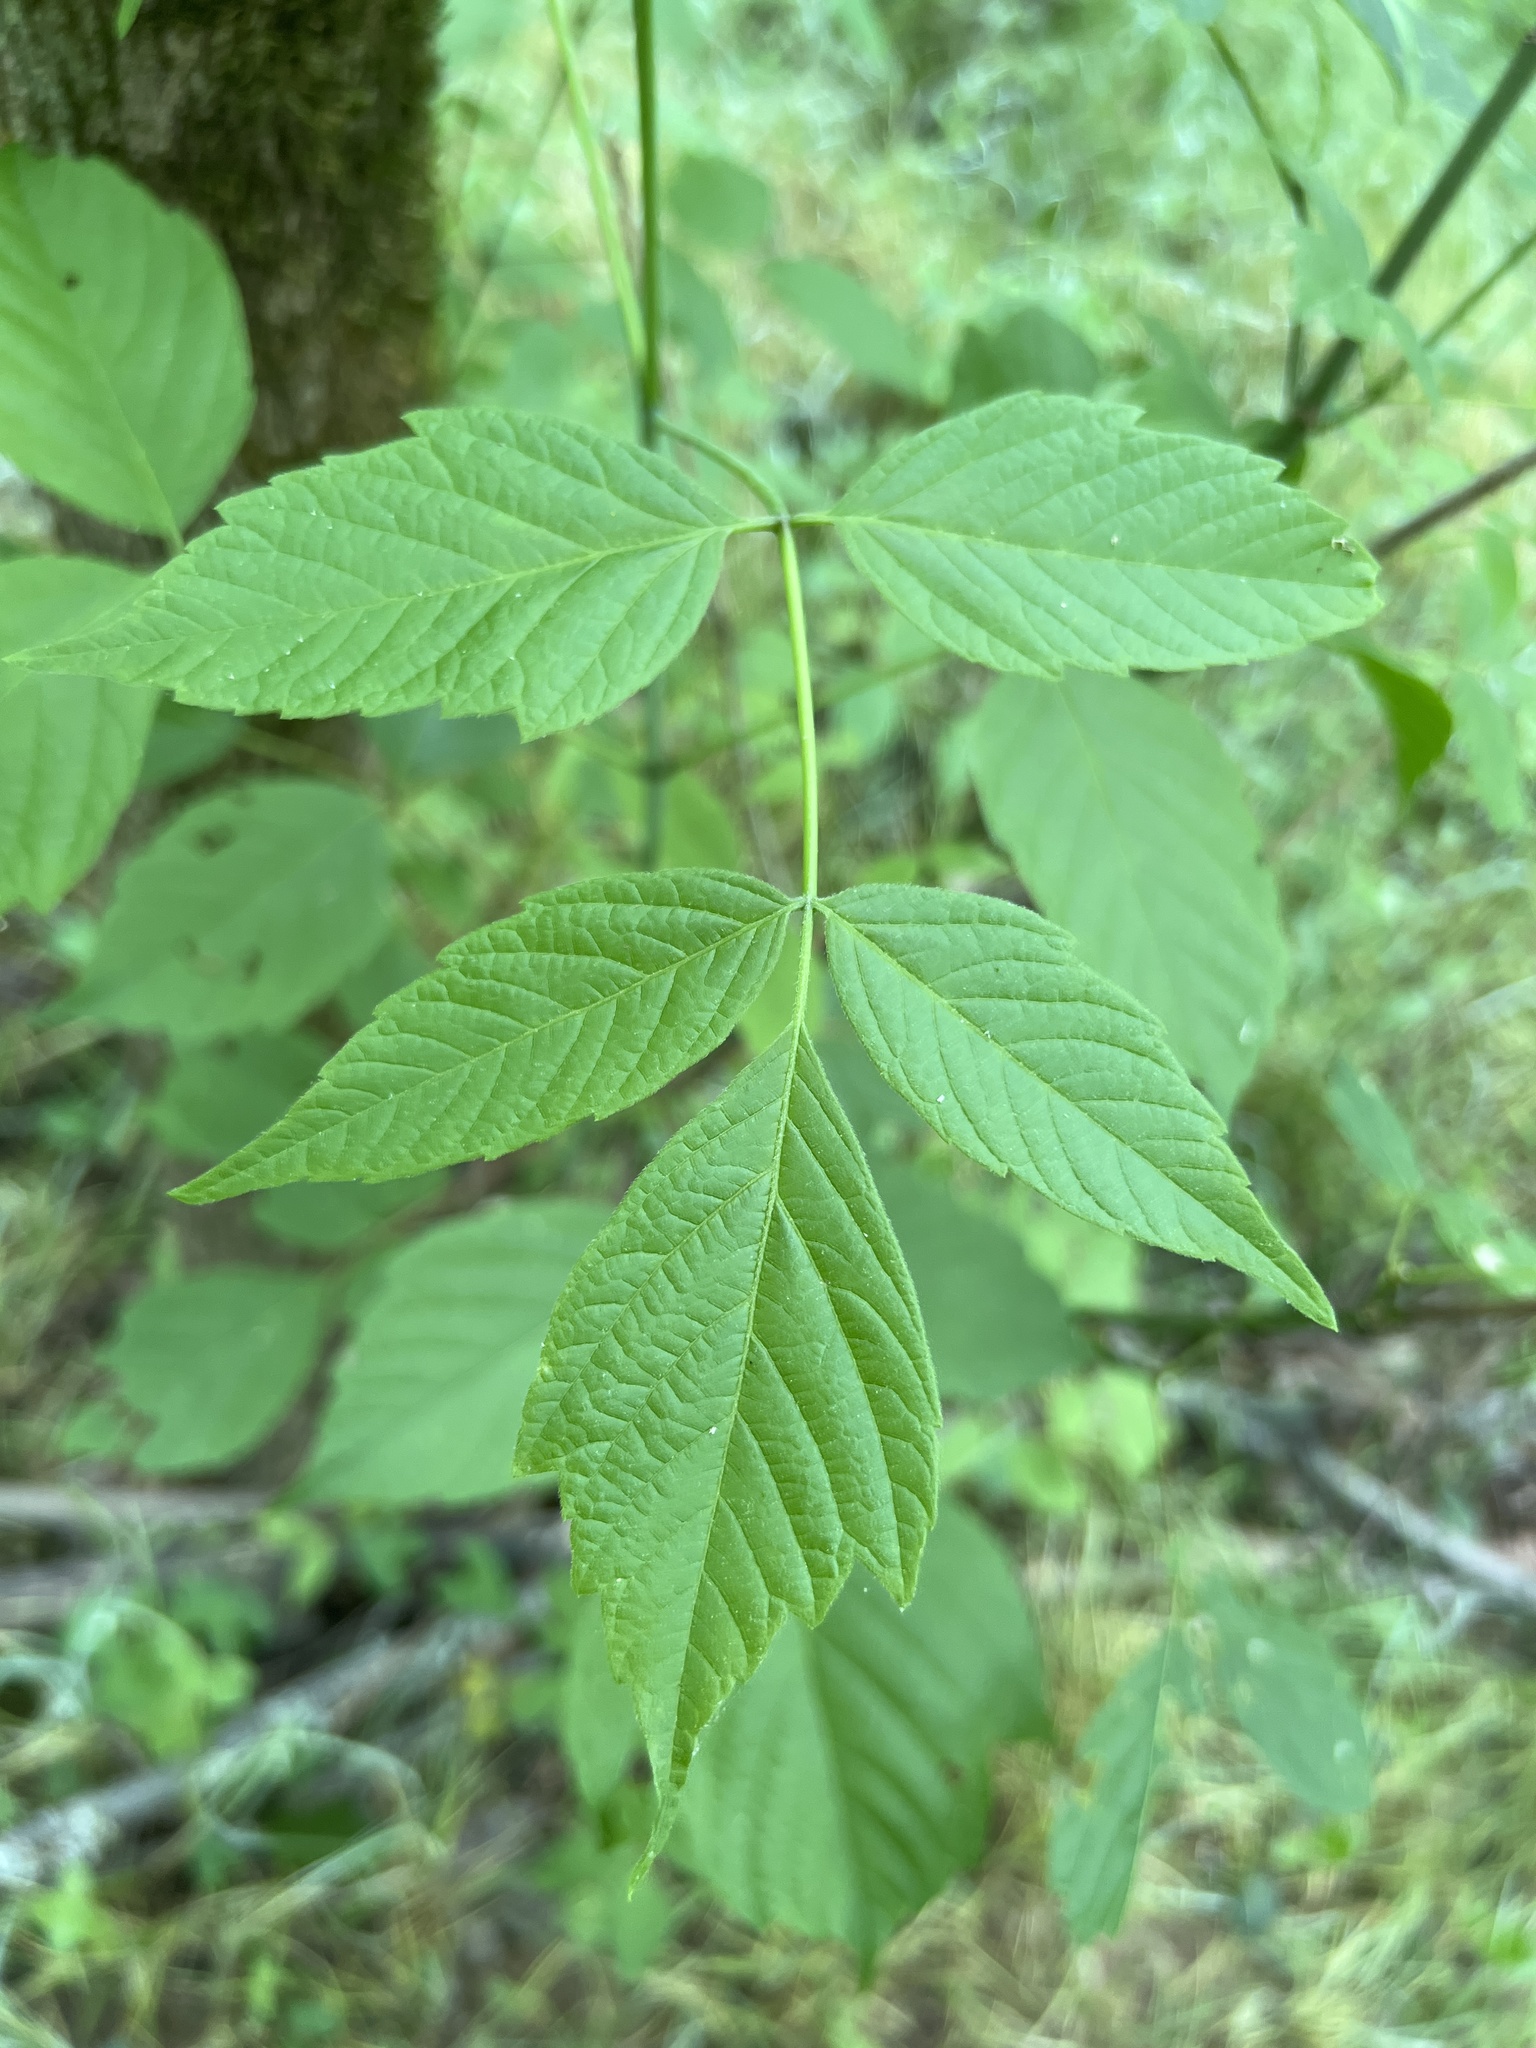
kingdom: Plantae
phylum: Tracheophyta
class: Magnoliopsida
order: Sapindales
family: Sapindaceae
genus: Acer
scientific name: Acer negundo
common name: Ashleaf maple
